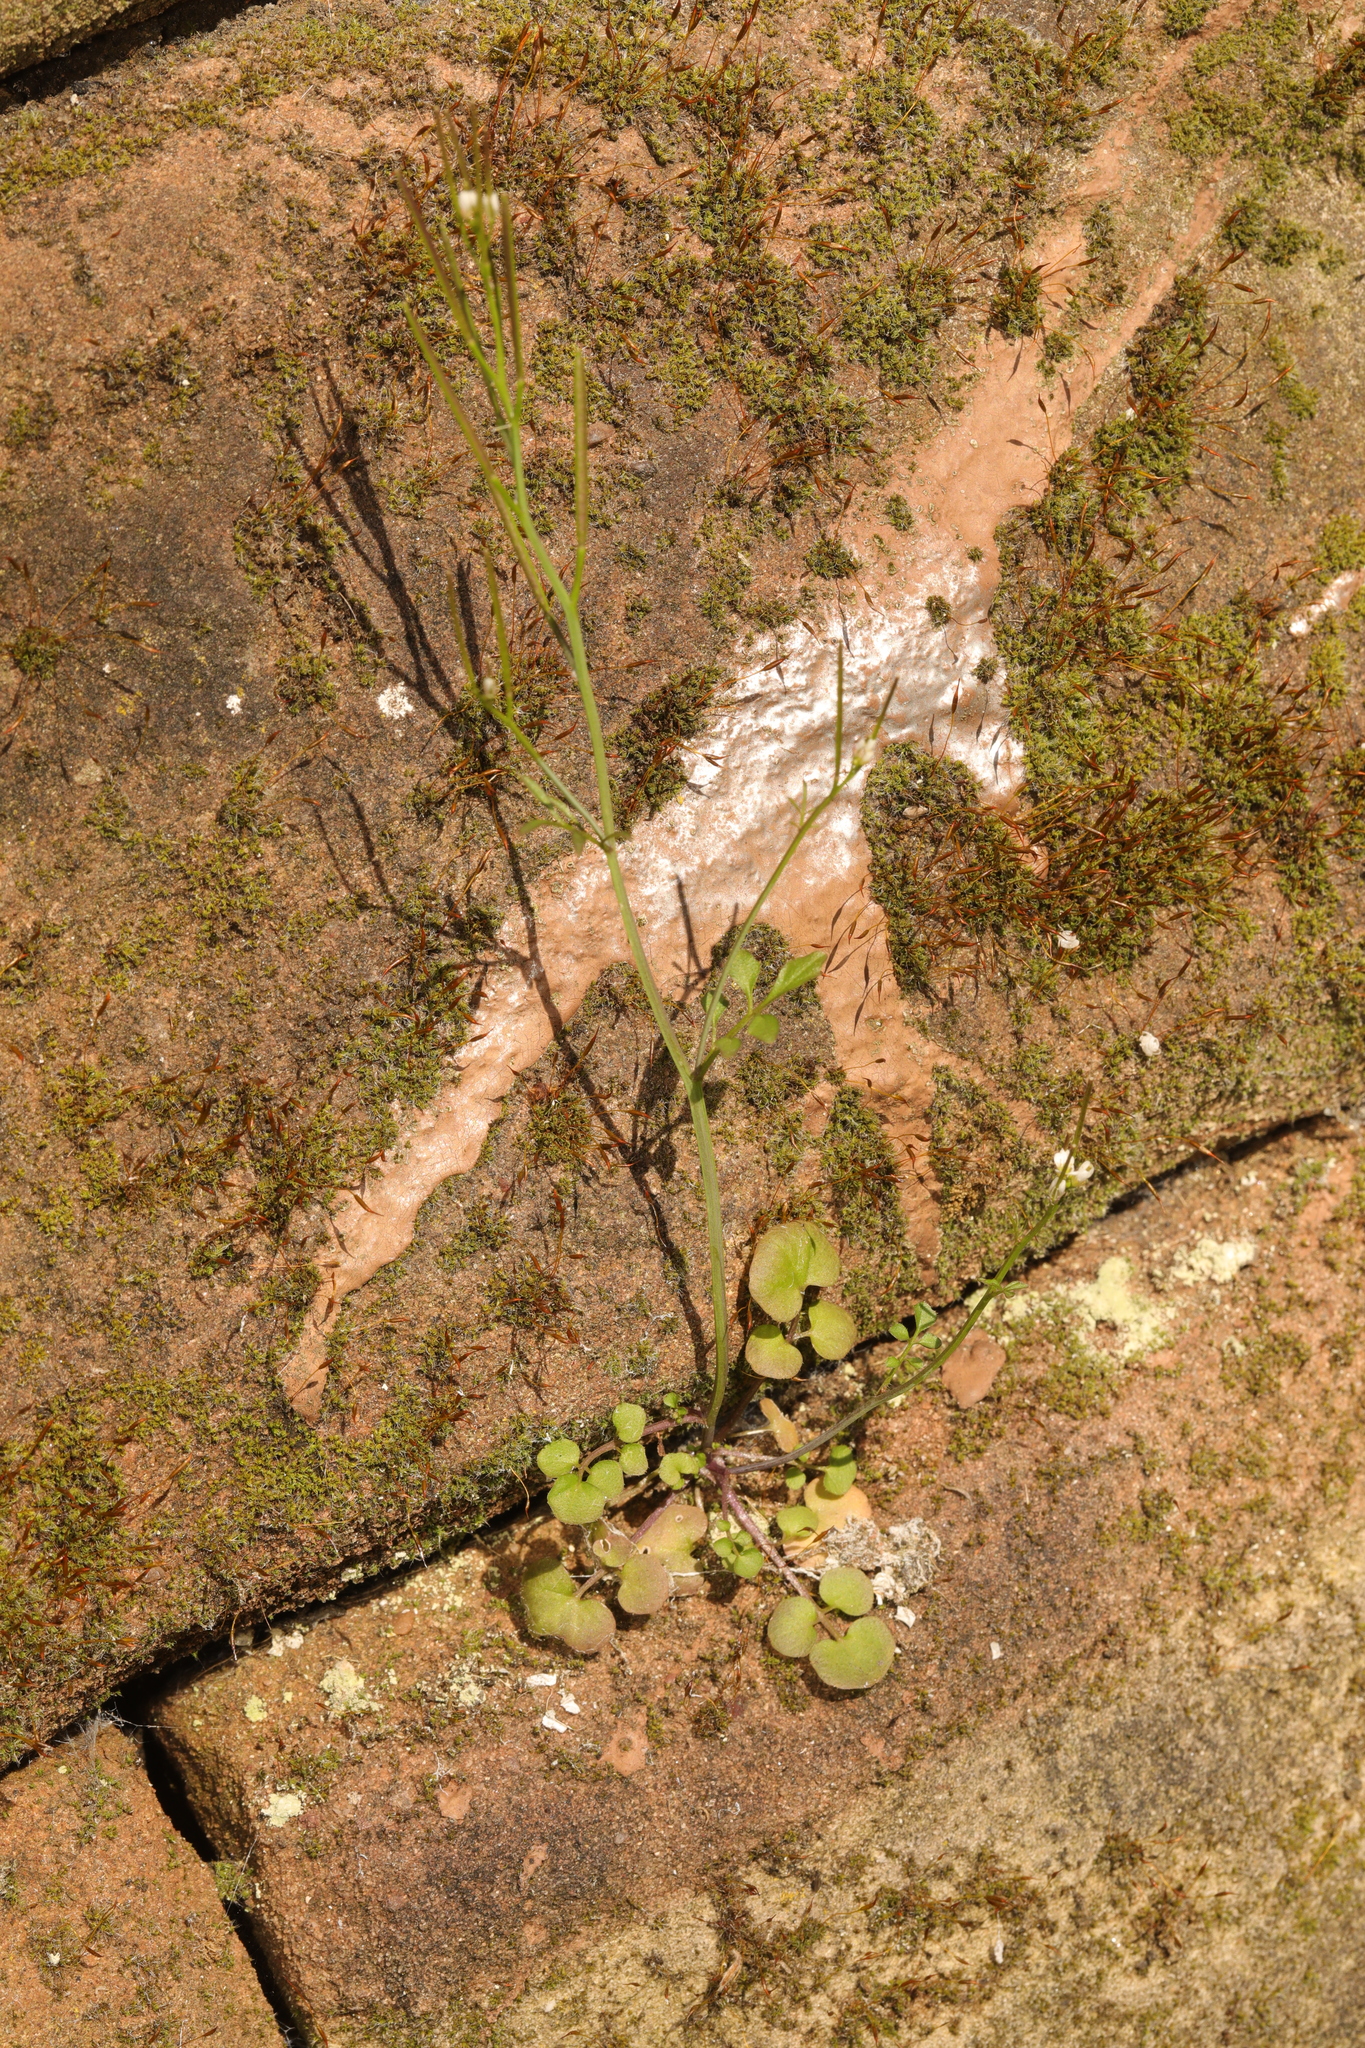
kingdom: Plantae
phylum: Tracheophyta
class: Magnoliopsida
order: Brassicales
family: Brassicaceae
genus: Cardamine
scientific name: Cardamine hirsuta
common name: Hairy bittercress
